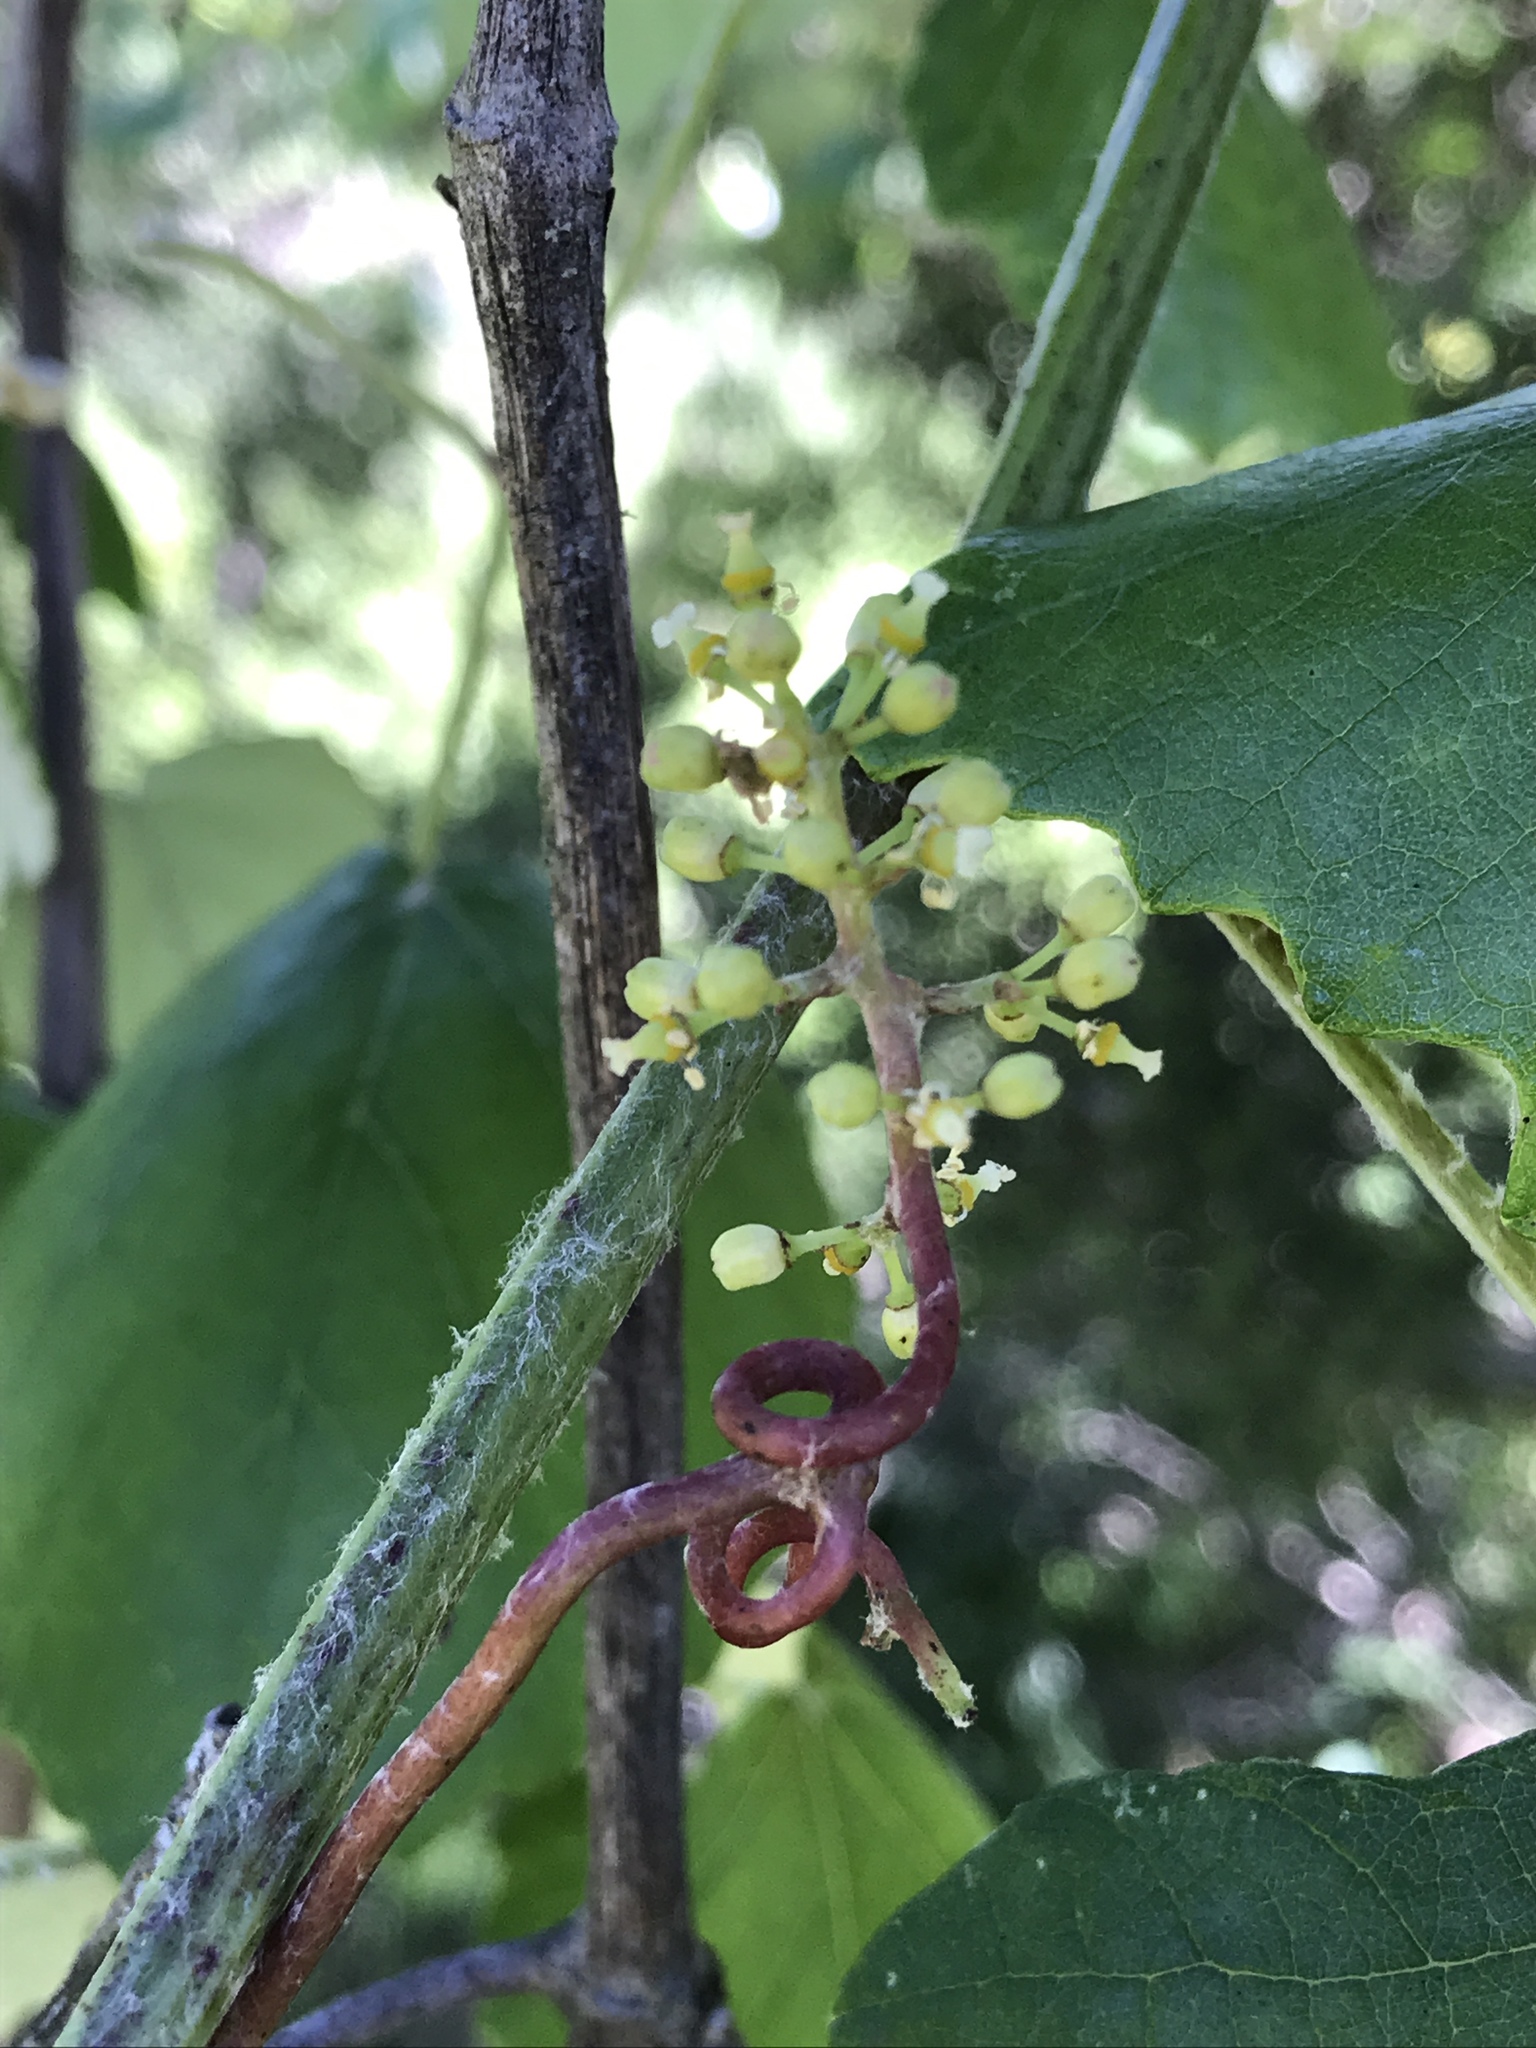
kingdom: Plantae
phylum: Tracheophyta
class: Magnoliopsida
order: Vitales
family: Vitaceae
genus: Vitis
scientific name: Vitis mustangensis
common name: Mustang grape
